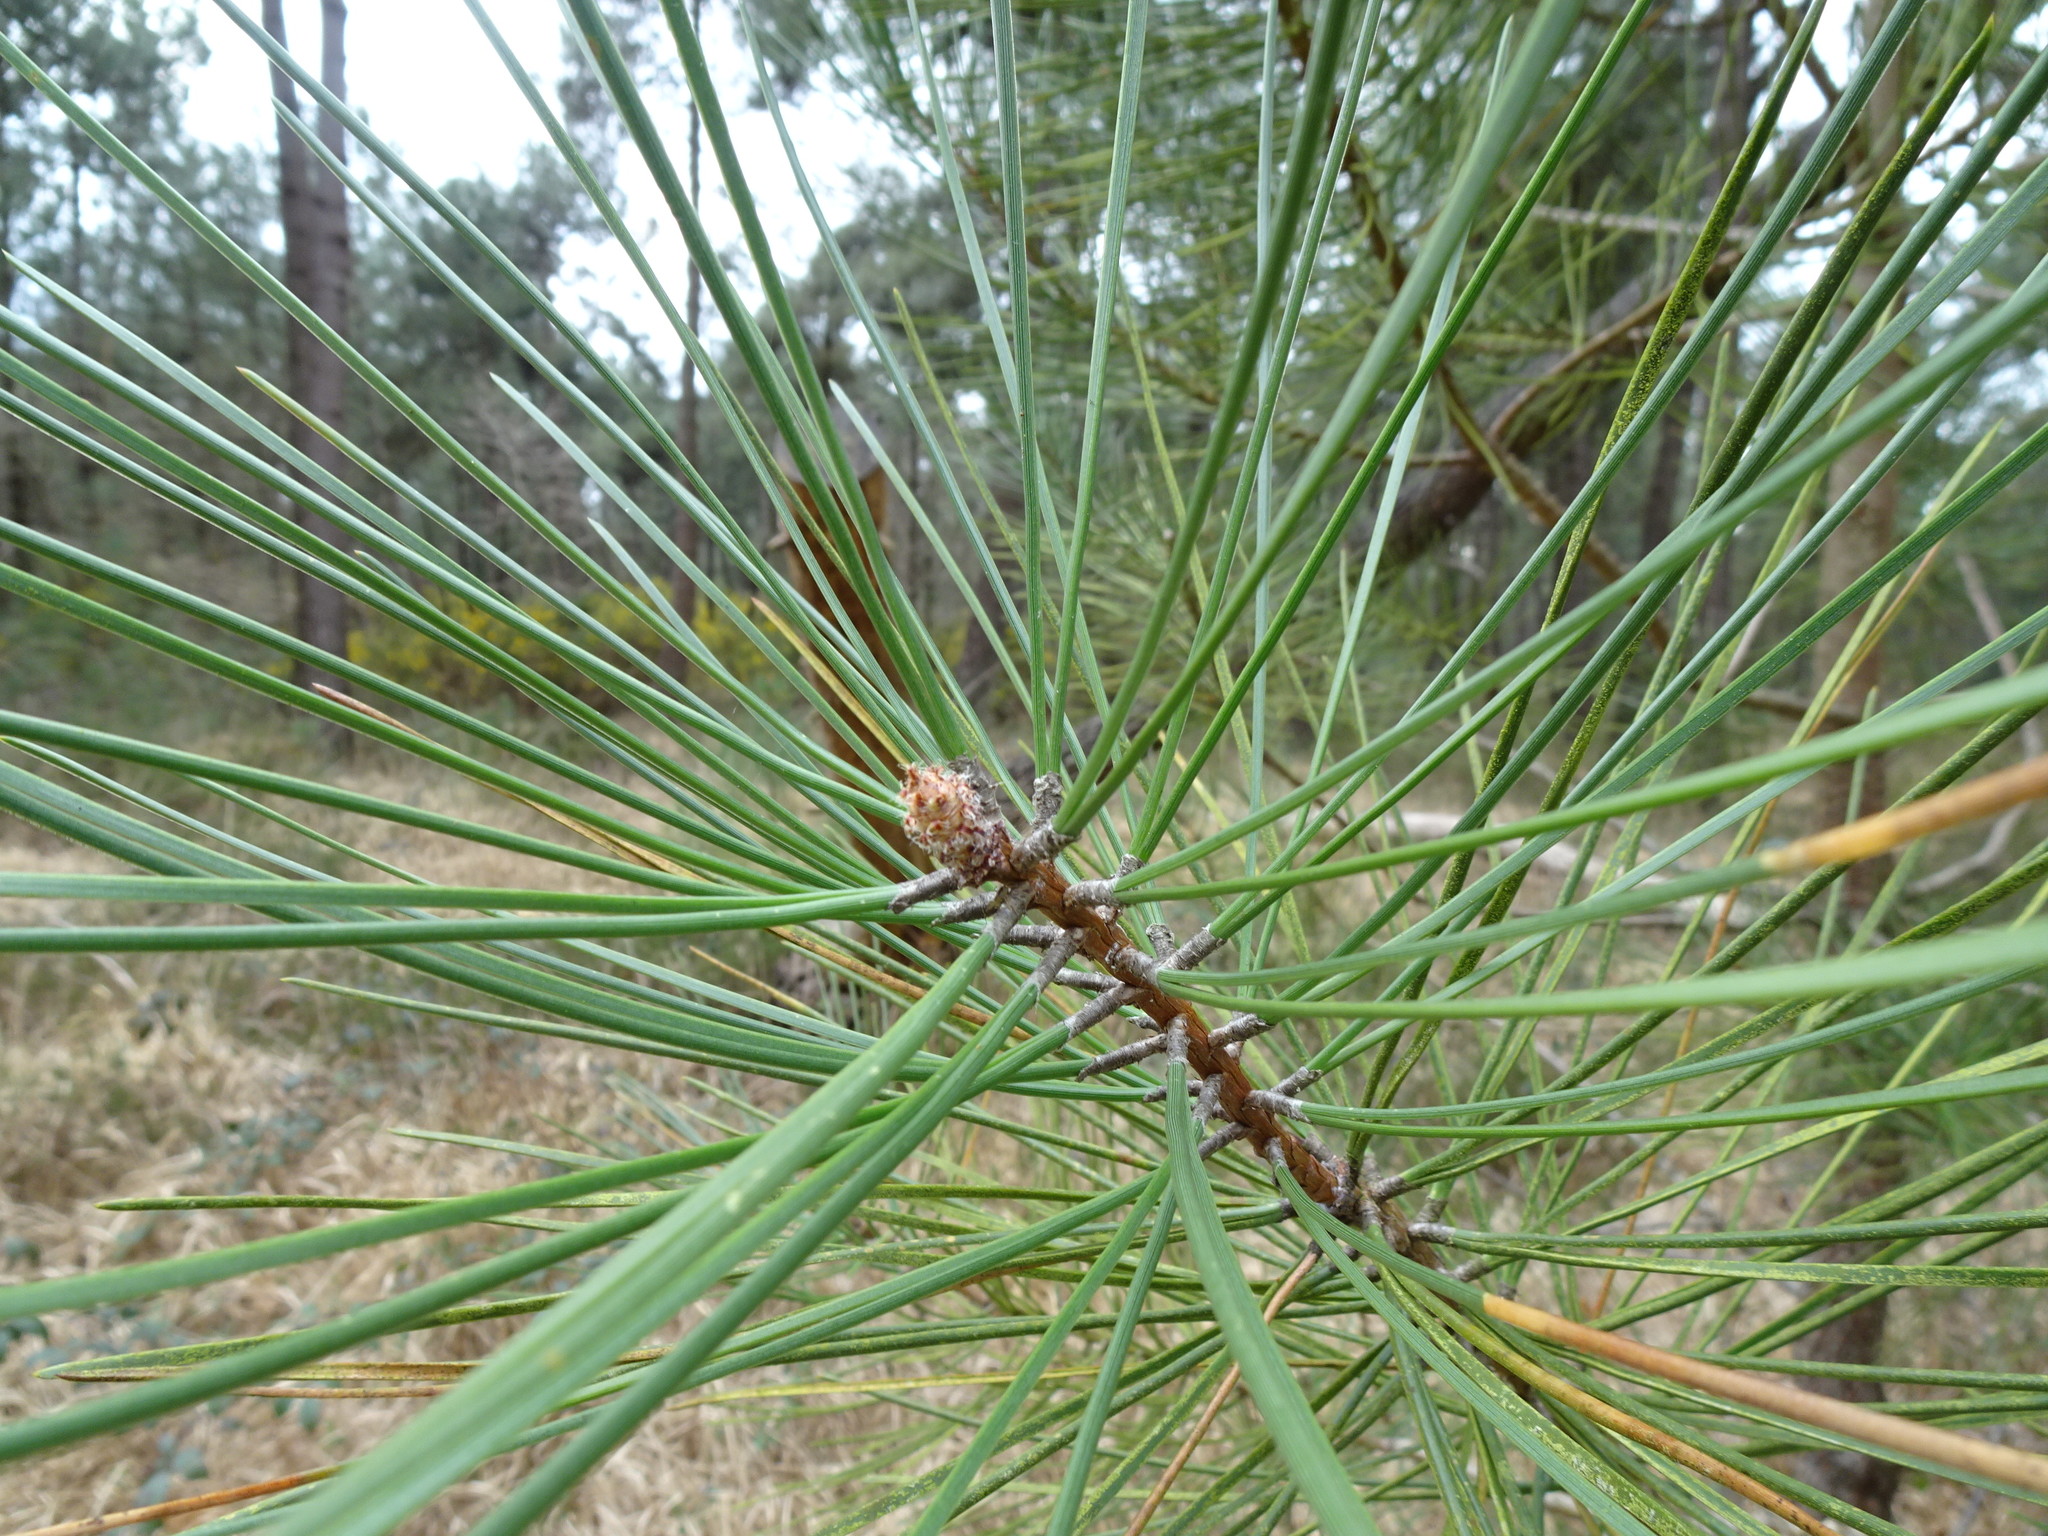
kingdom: Plantae
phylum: Tracheophyta
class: Pinopsida
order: Pinales
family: Pinaceae
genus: Pinus
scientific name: Pinus pinaster
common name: Maritime pine
